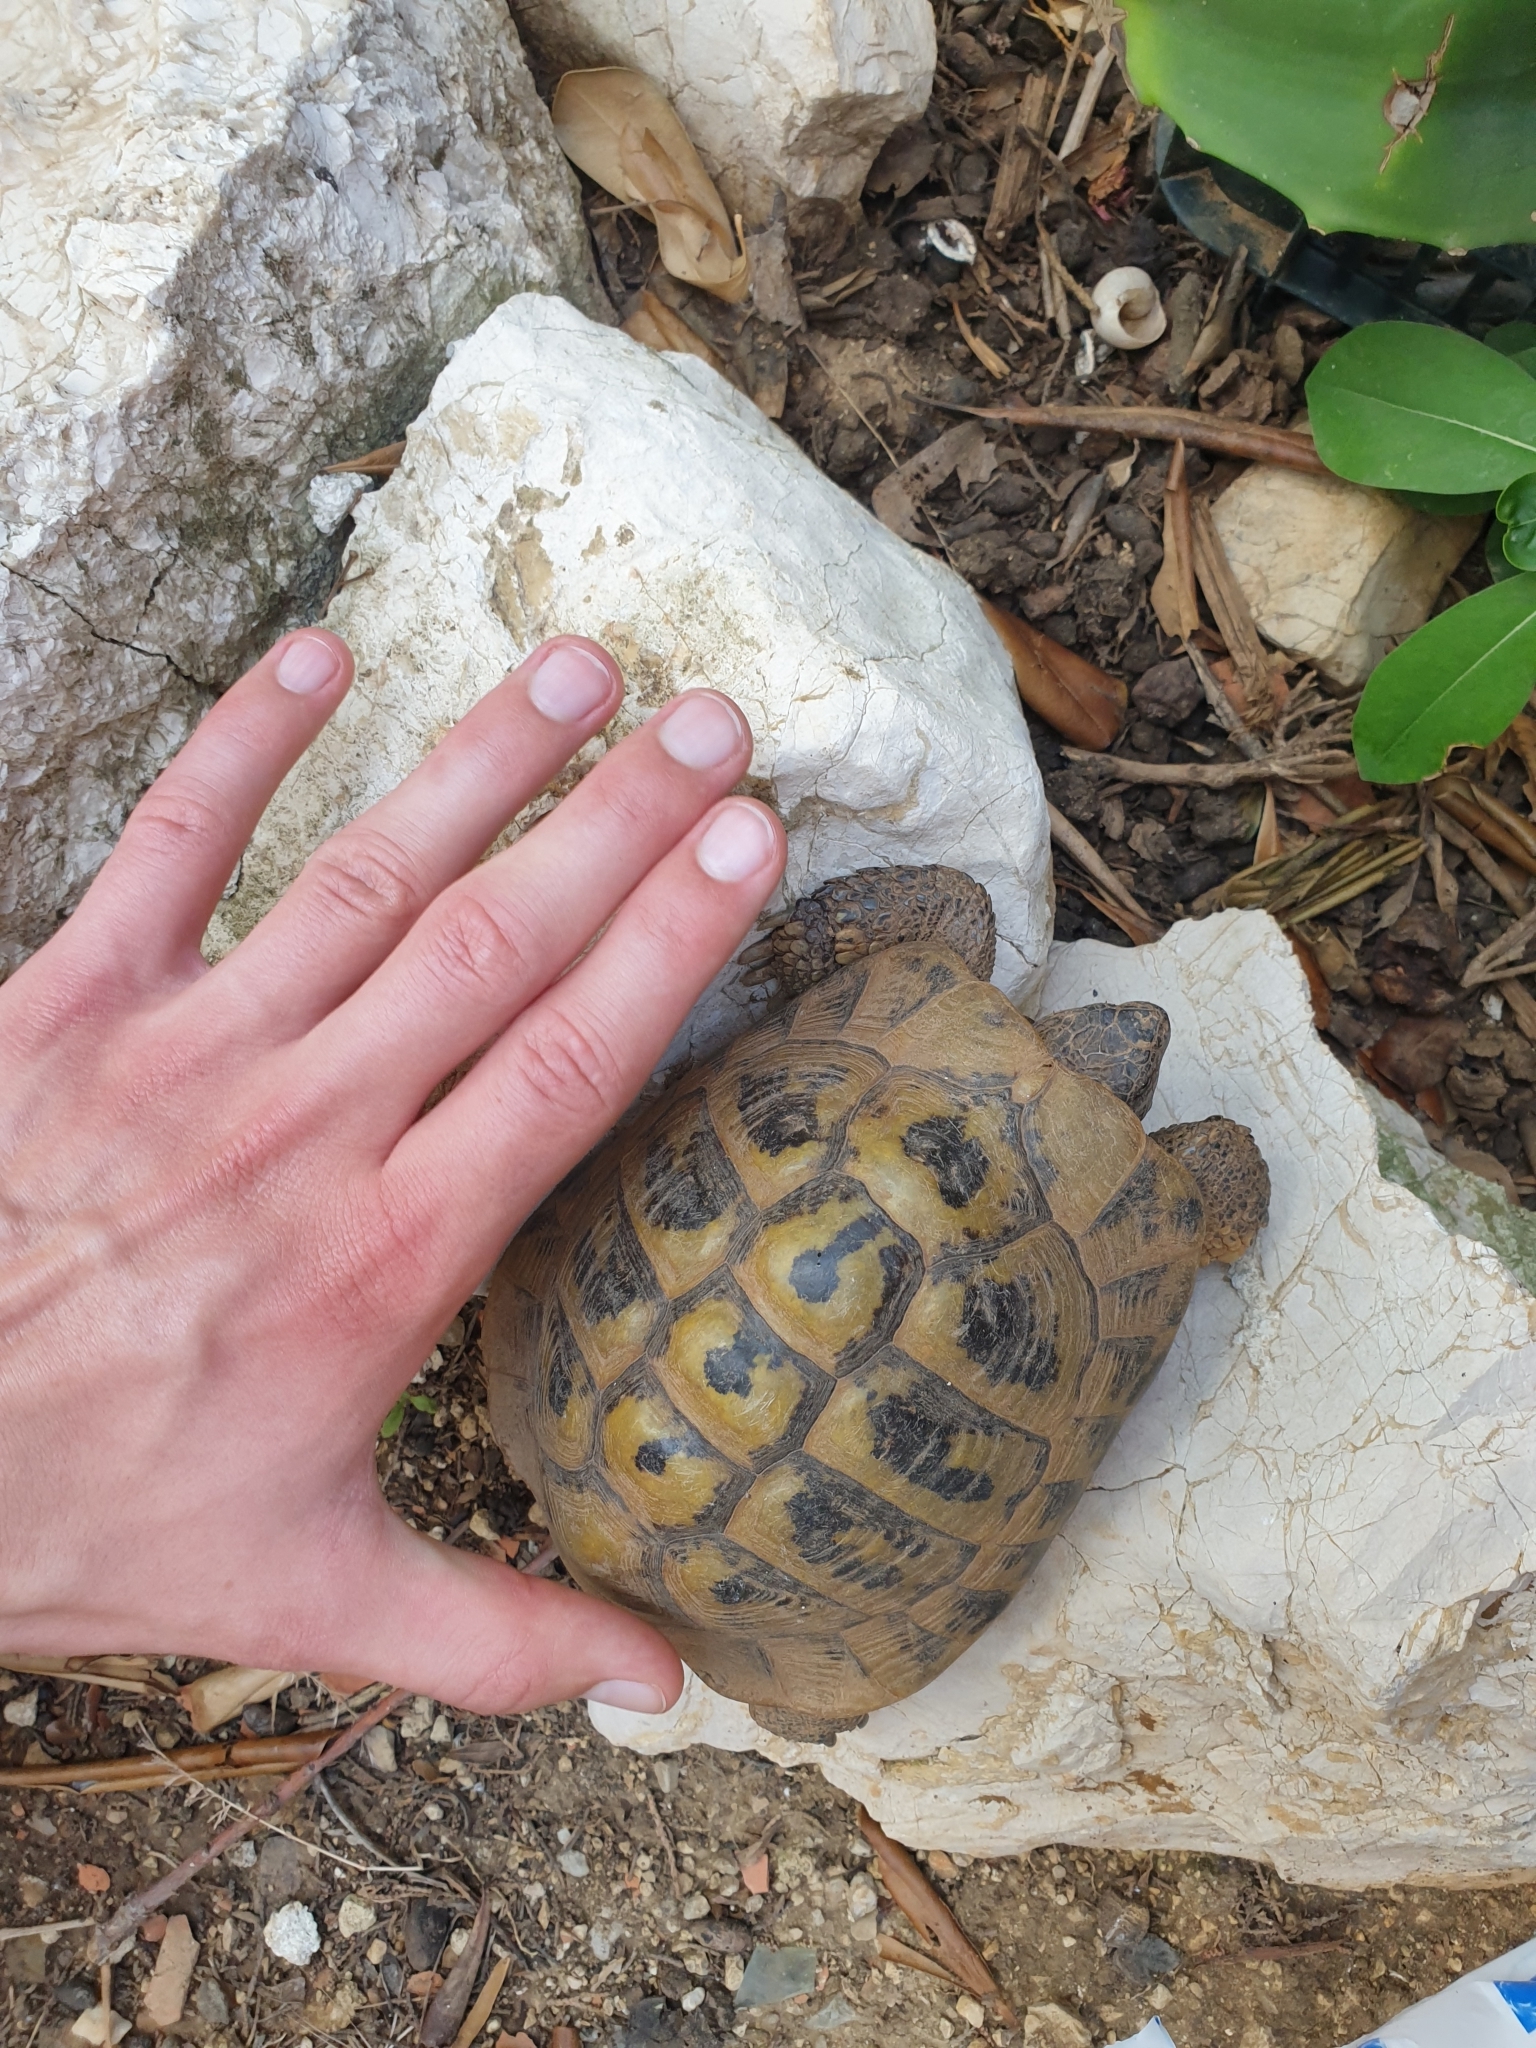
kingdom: Animalia
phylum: Chordata
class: Testudines
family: Testudinidae
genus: Testudo
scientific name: Testudo hermanni
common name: Hermann's tortoise
